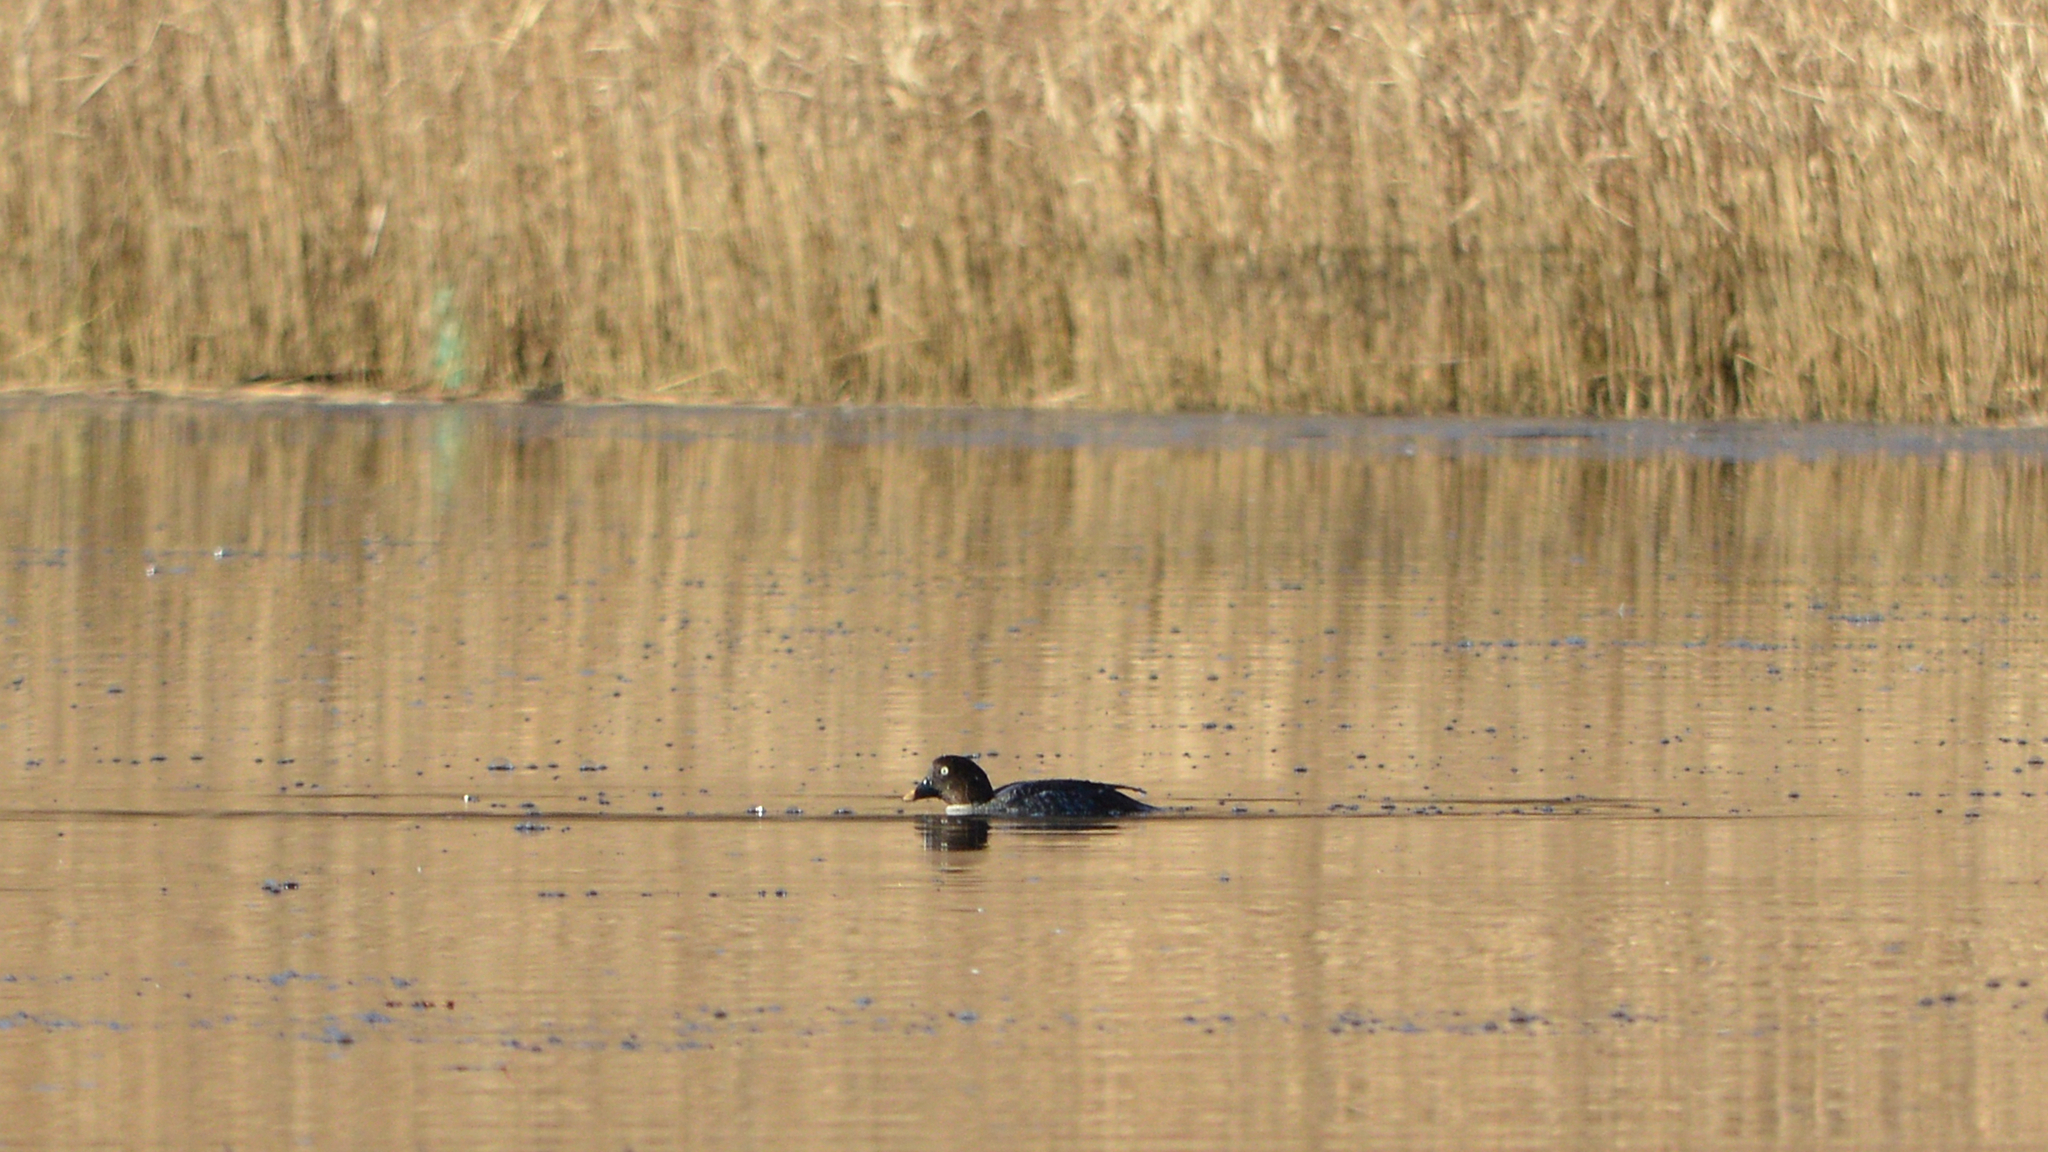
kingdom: Animalia
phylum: Chordata
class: Aves
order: Anseriformes
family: Anatidae
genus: Bucephala
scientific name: Bucephala clangula
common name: Common goldeneye
